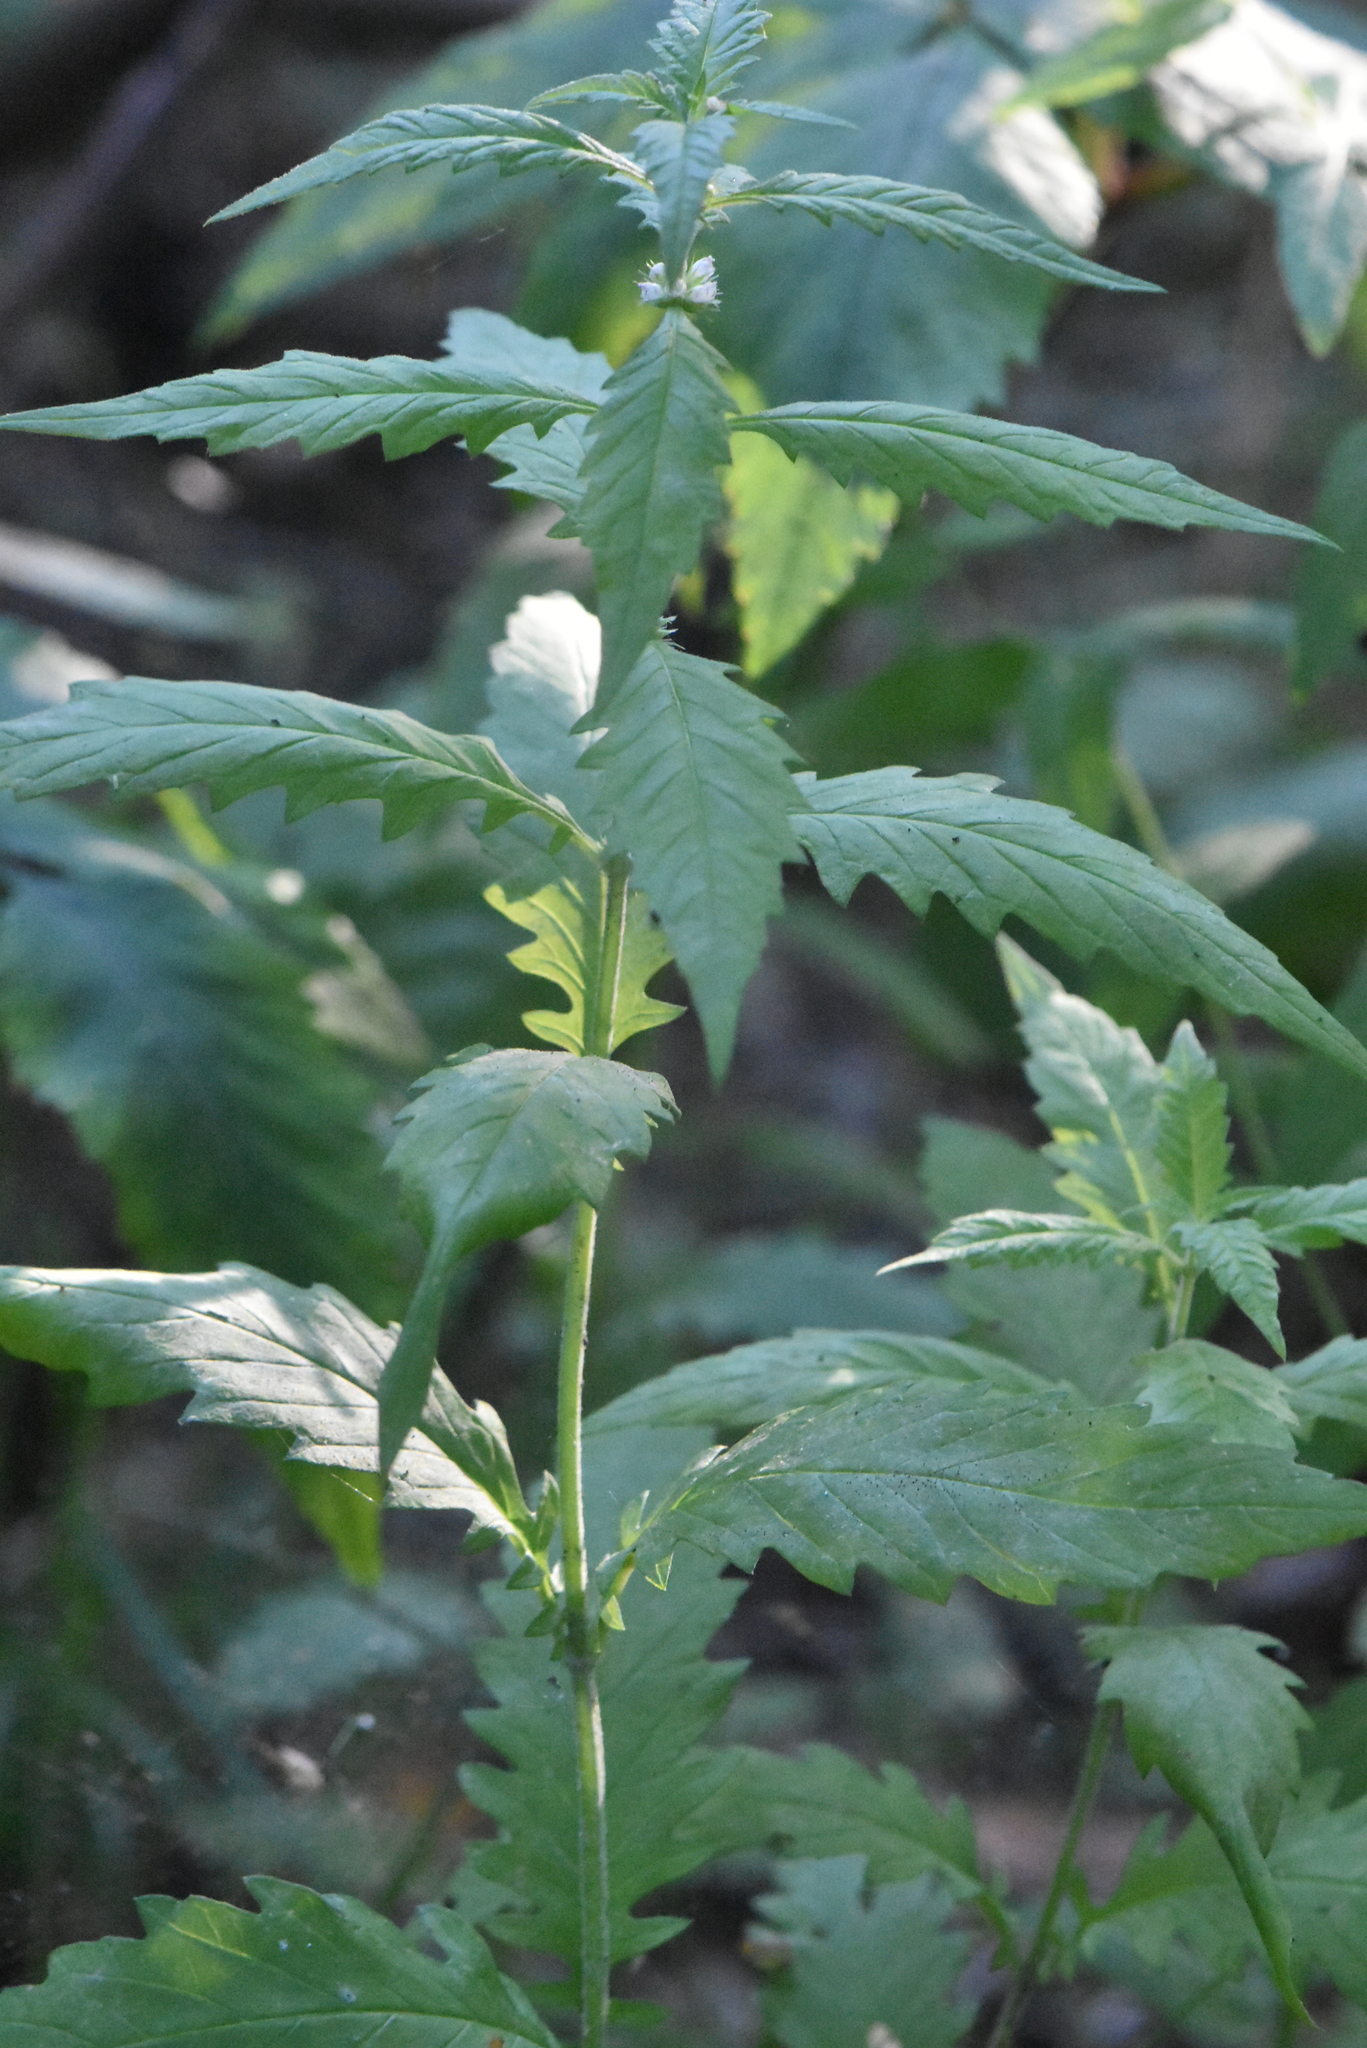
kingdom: Plantae
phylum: Tracheophyta
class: Magnoliopsida
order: Lamiales
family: Lamiaceae
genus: Lycopus
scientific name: Lycopus europaeus
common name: European bugleweed
